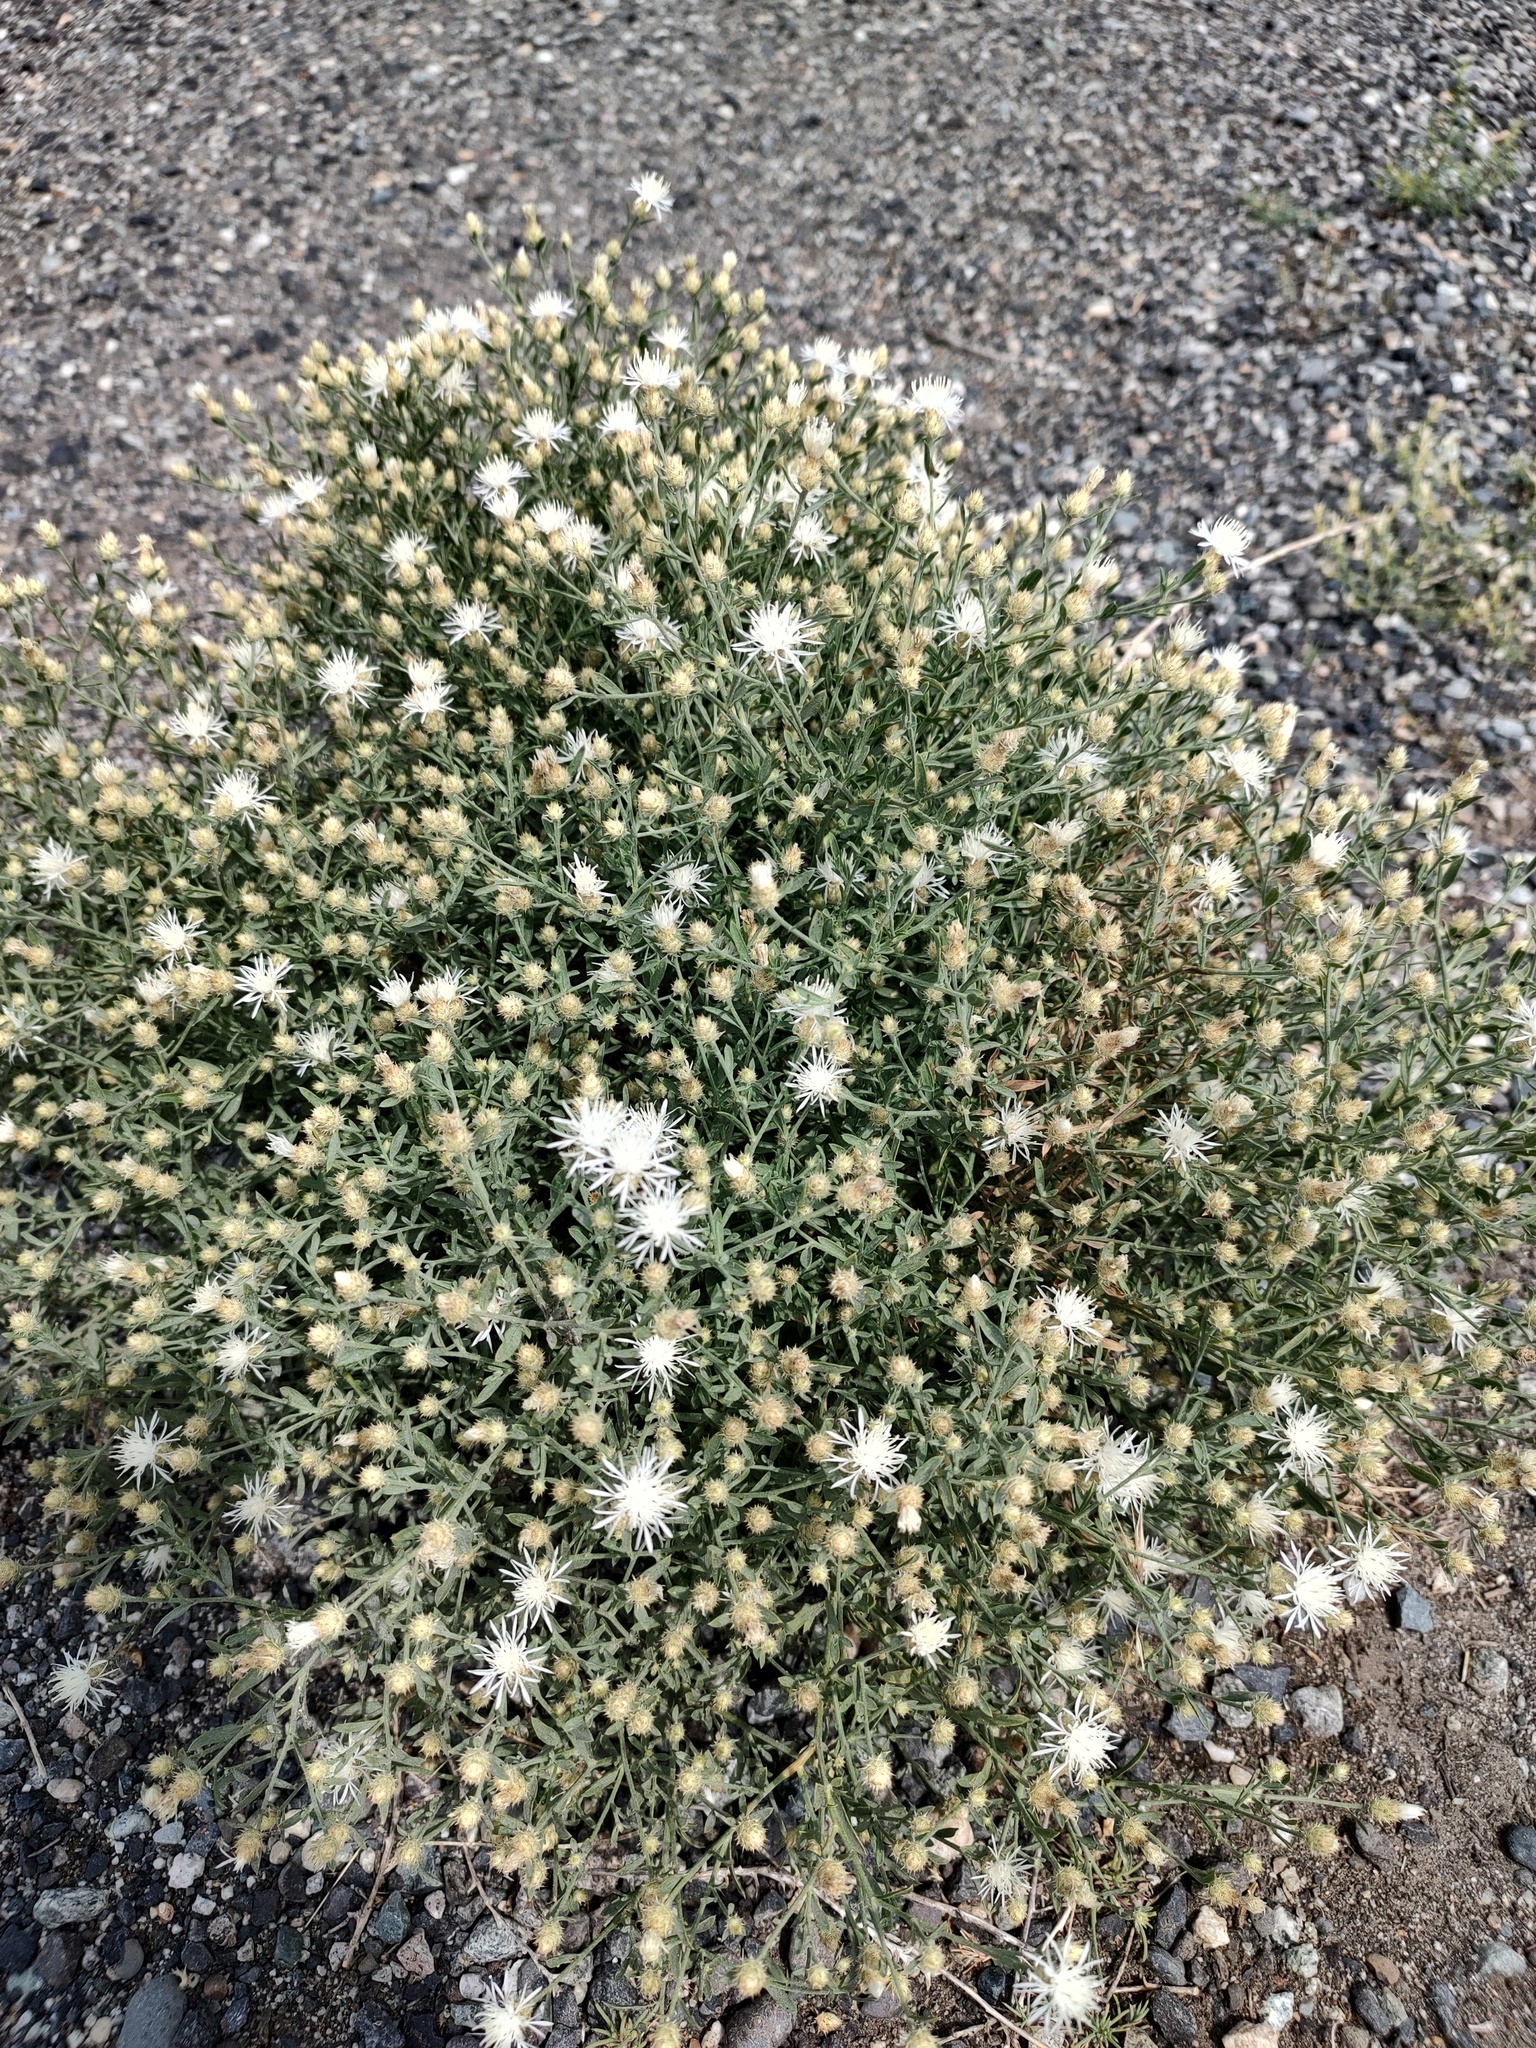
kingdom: Plantae
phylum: Tracheophyta
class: Magnoliopsida
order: Asterales
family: Asteraceae
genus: Centaurea
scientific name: Centaurea diffusa
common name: Diffuse knapweed
